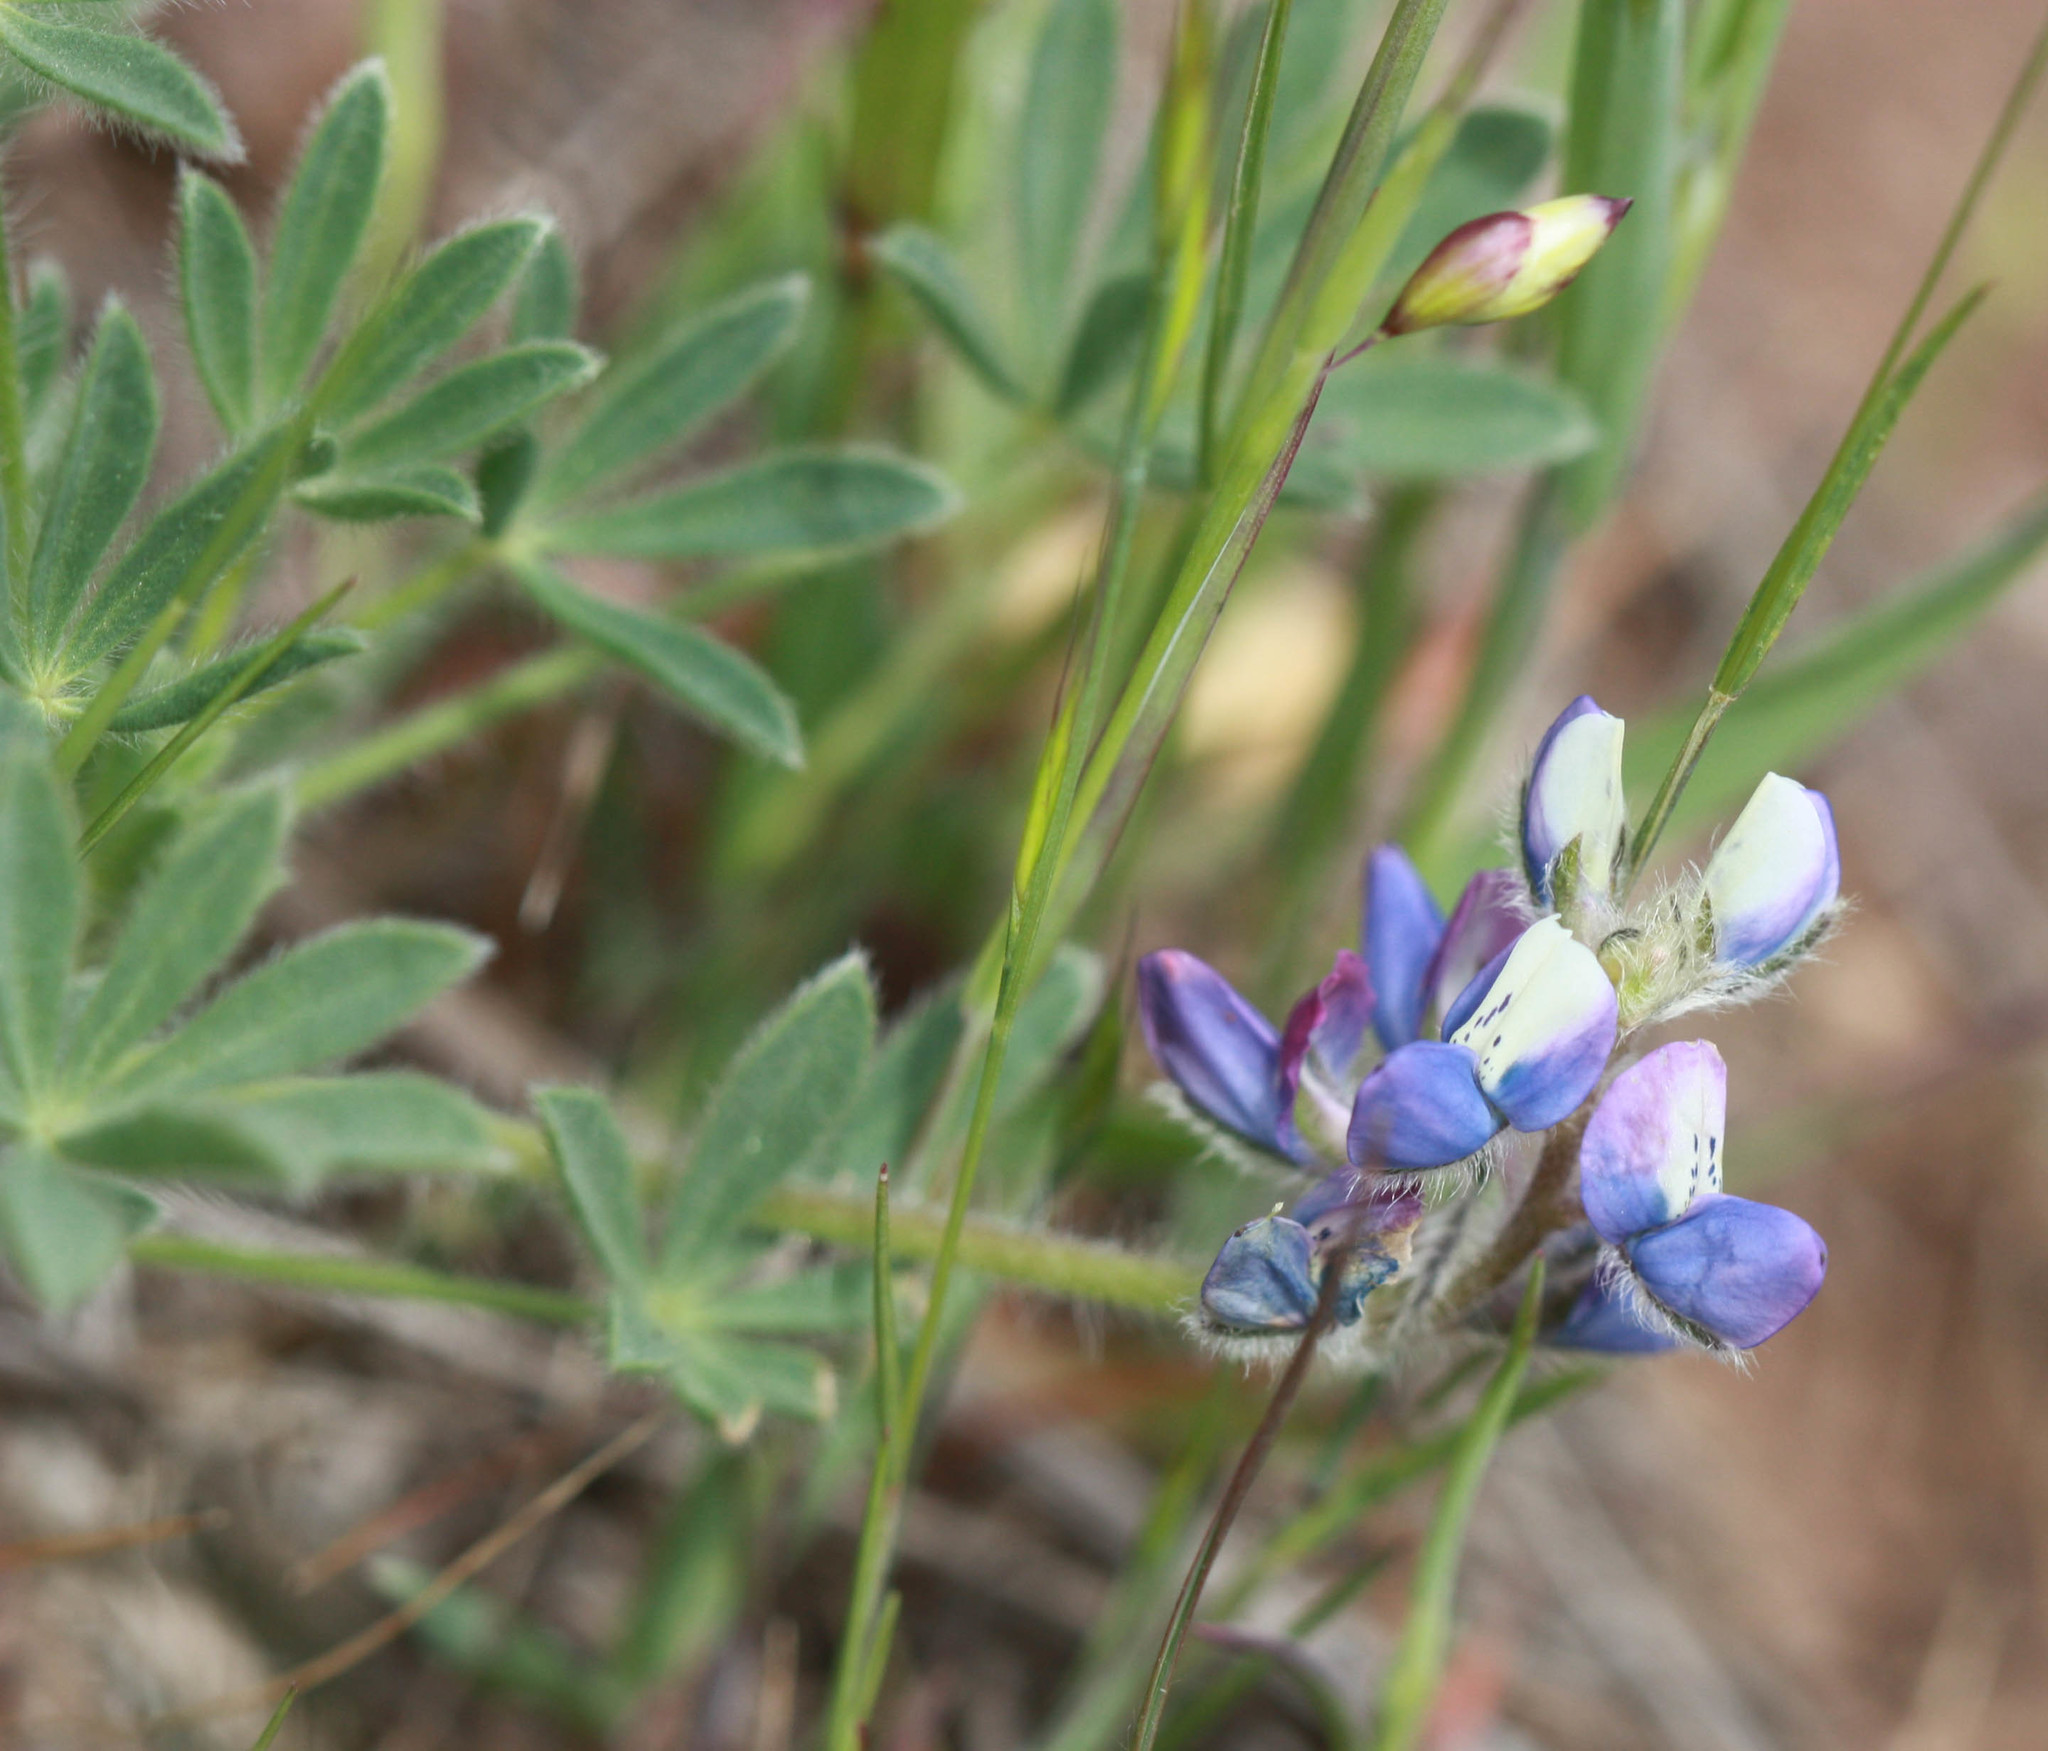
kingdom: Plantae
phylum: Tracheophyta
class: Magnoliopsida
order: Fabales
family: Fabaceae
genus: Lupinus
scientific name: Lupinus bicolor
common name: Miniature lupine
